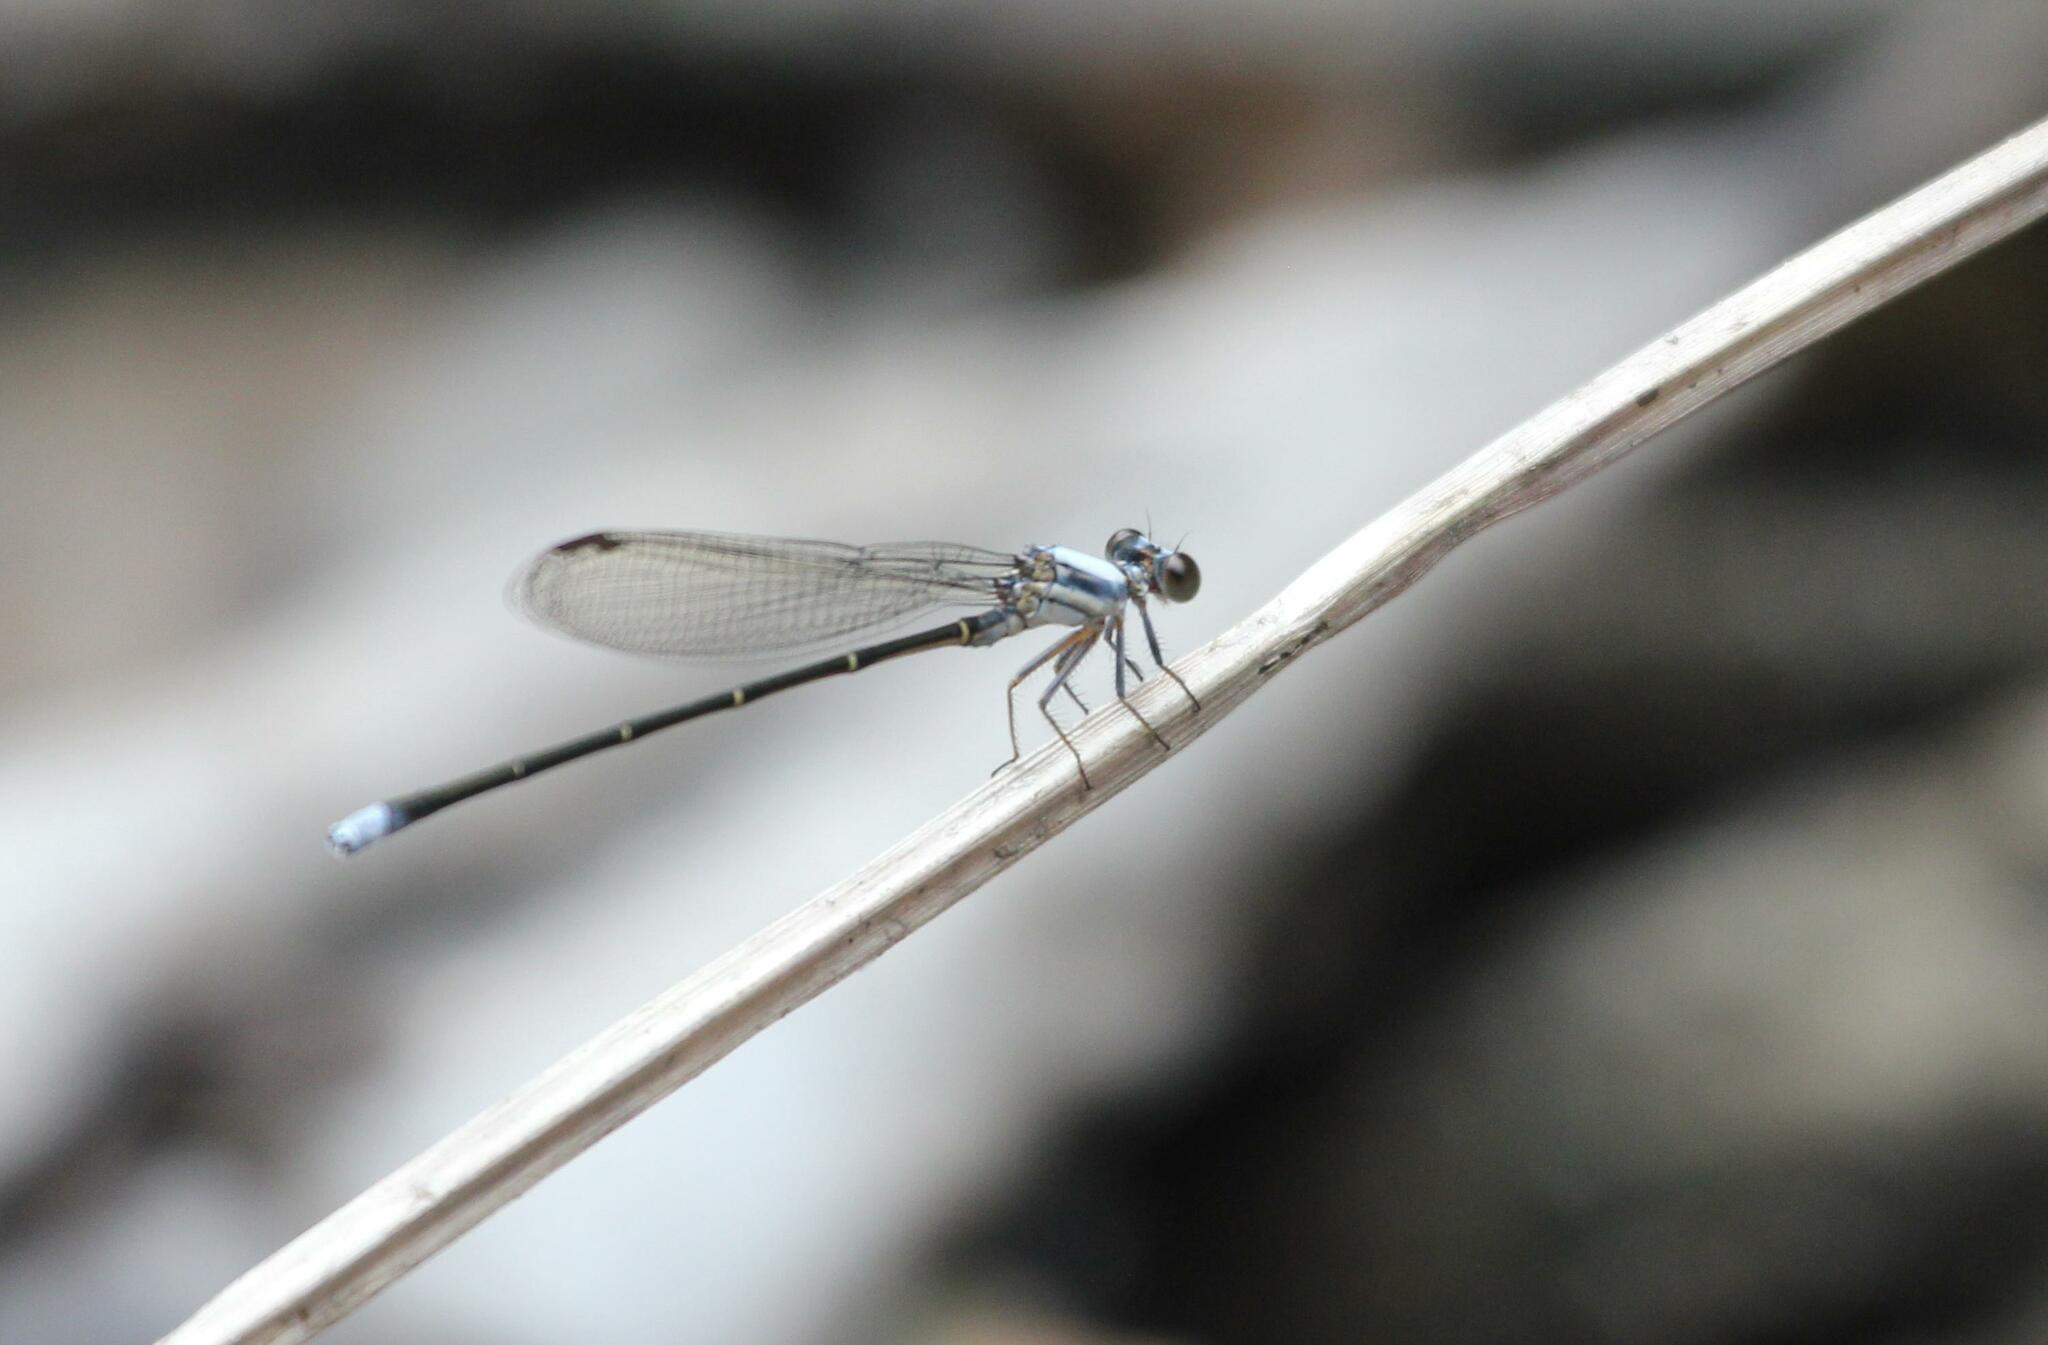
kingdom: Animalia
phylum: Arthropoda
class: Insecta
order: Odonata
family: Coenagrionidae
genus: Argia
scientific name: Argia moesta
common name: Powdered dancer
